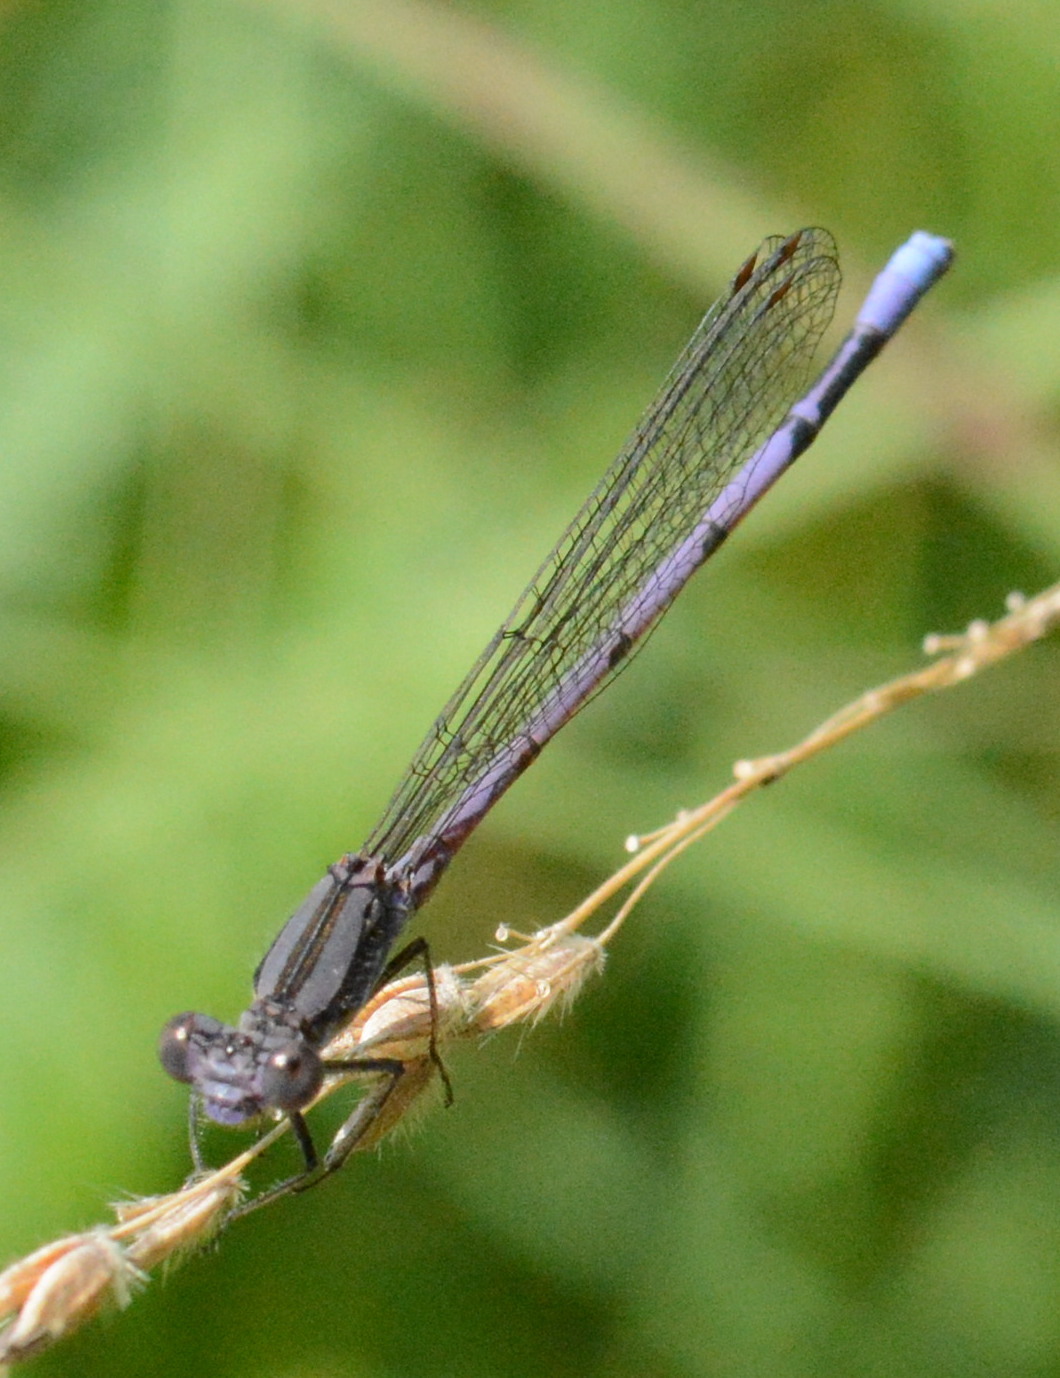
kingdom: Animalia
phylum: Arthropoda
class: Insecta
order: Odonata
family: Coenagrionidae
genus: Argia
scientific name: Argia fumipennis
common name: Variable dancer
